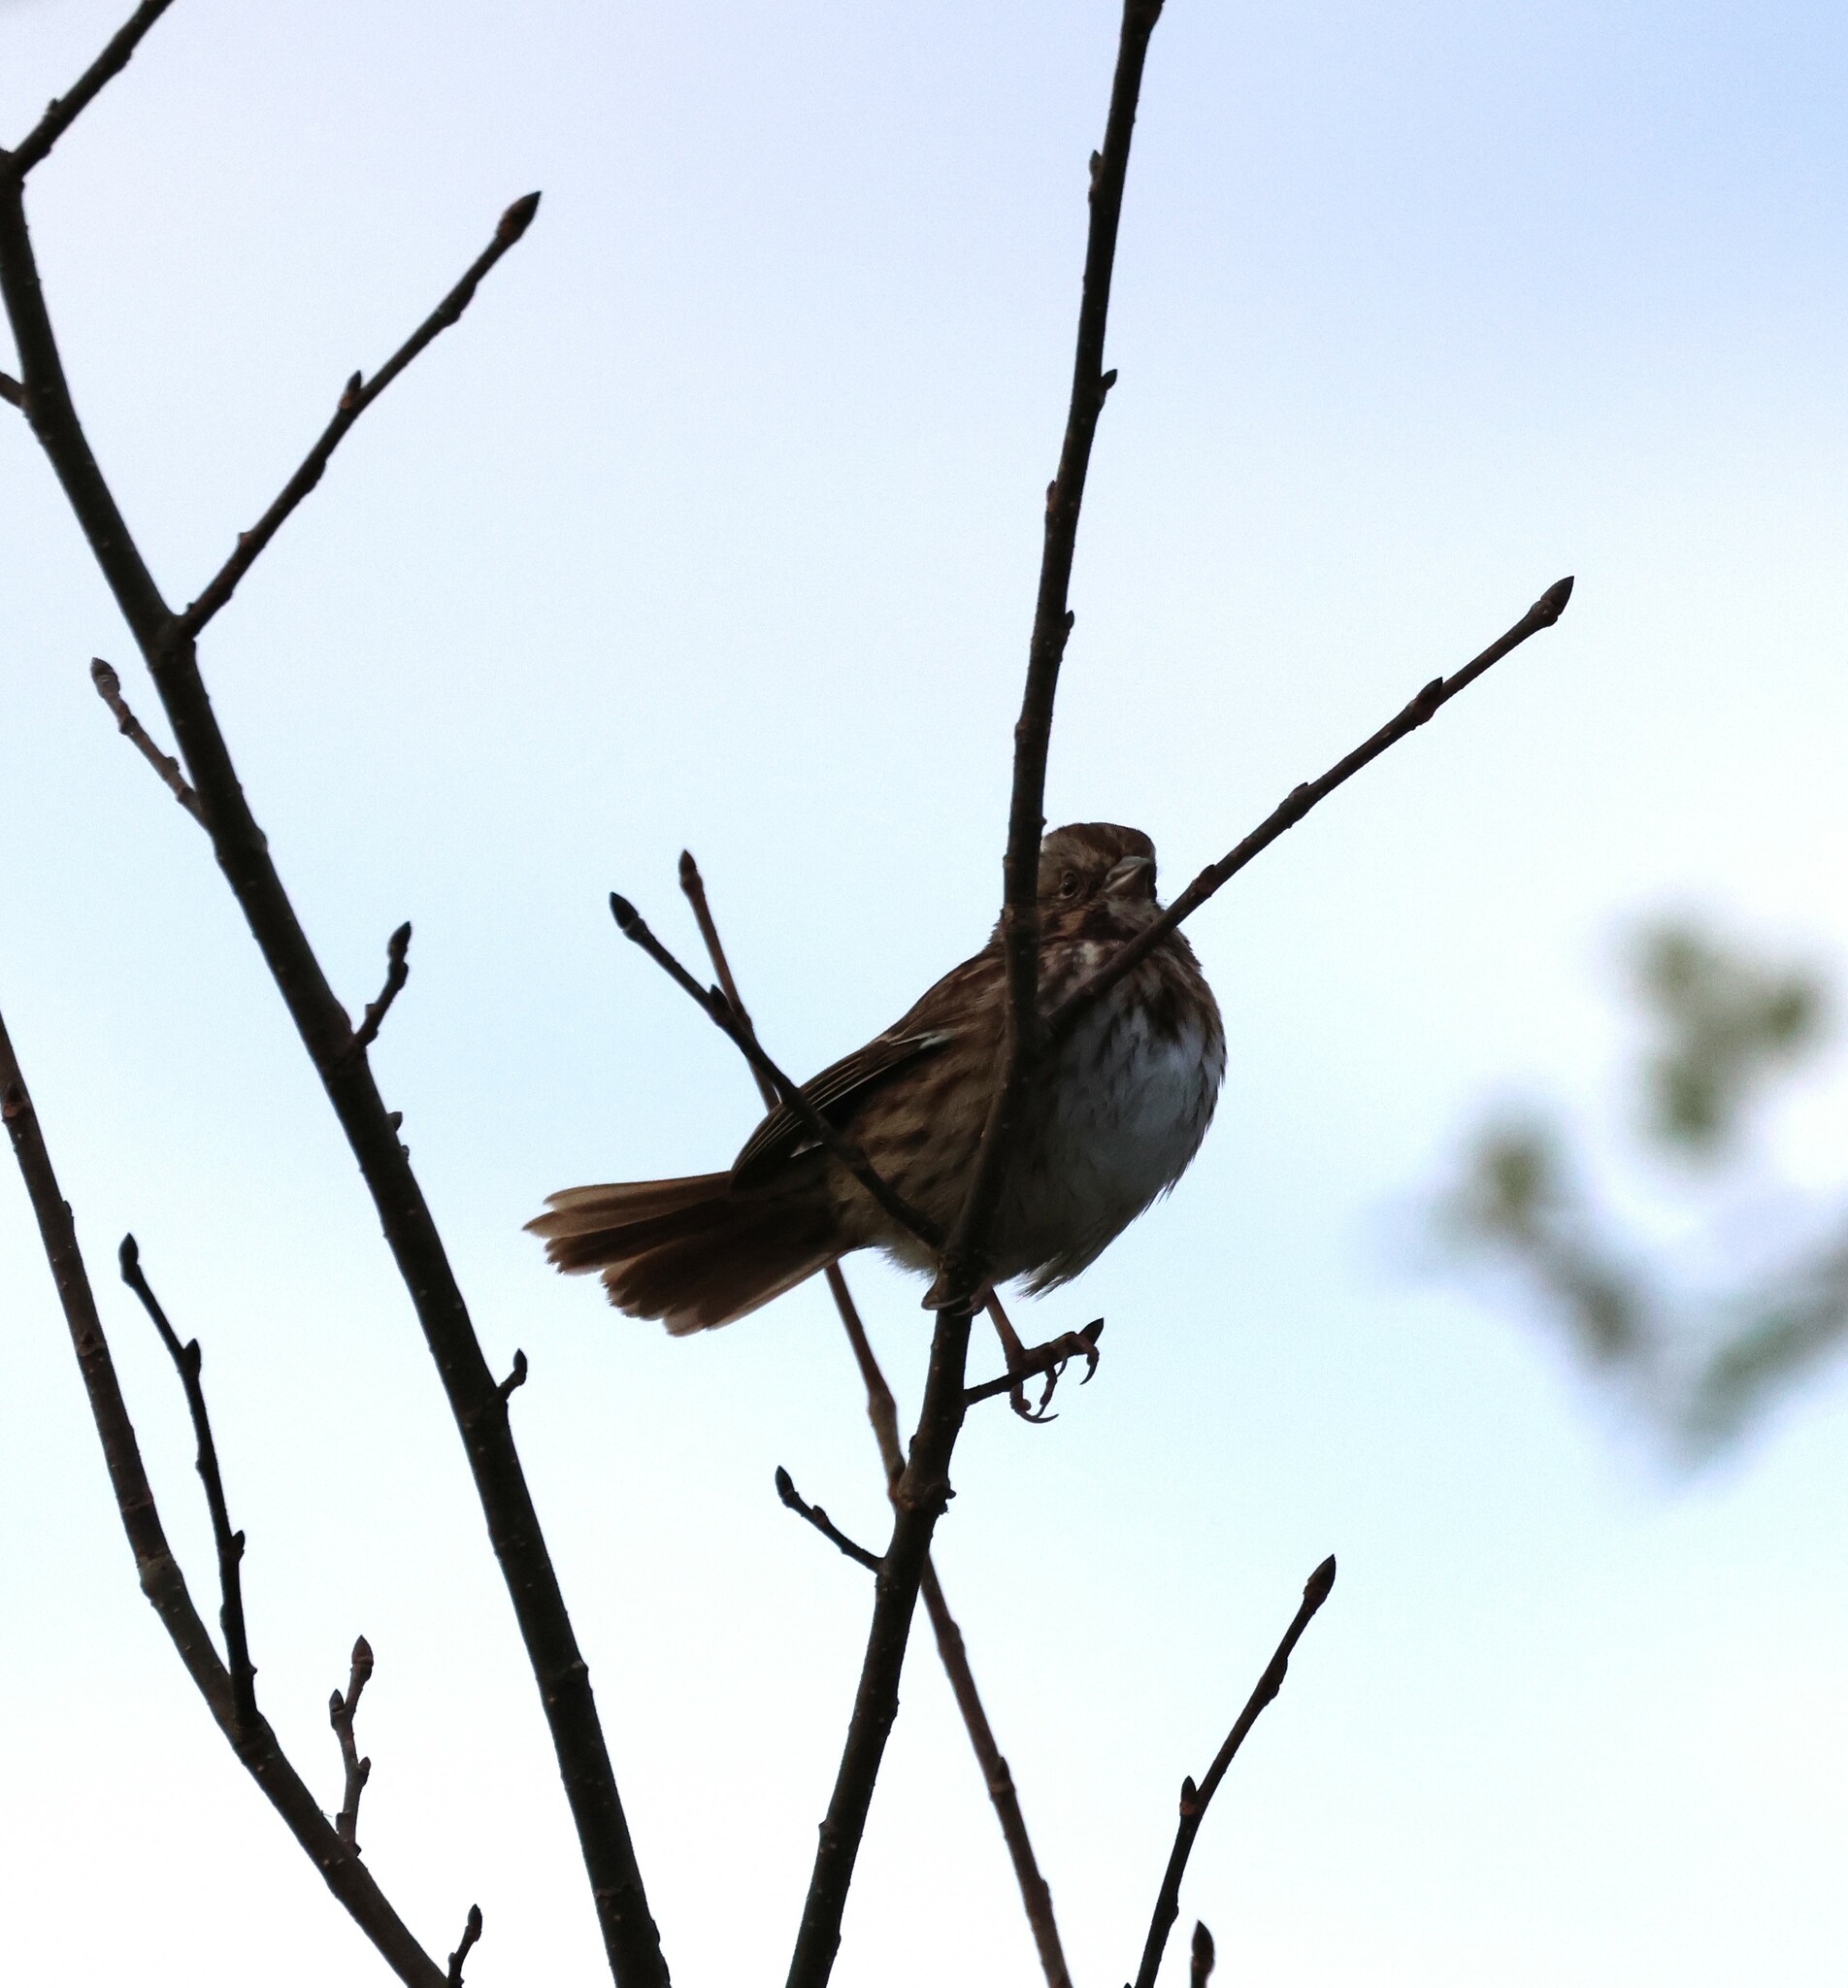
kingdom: Animalia
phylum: Chordata
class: Aves
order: Passeriformes
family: Passerellidae
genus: Melospiza
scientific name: Melospiza melodia
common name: Song sparrow
